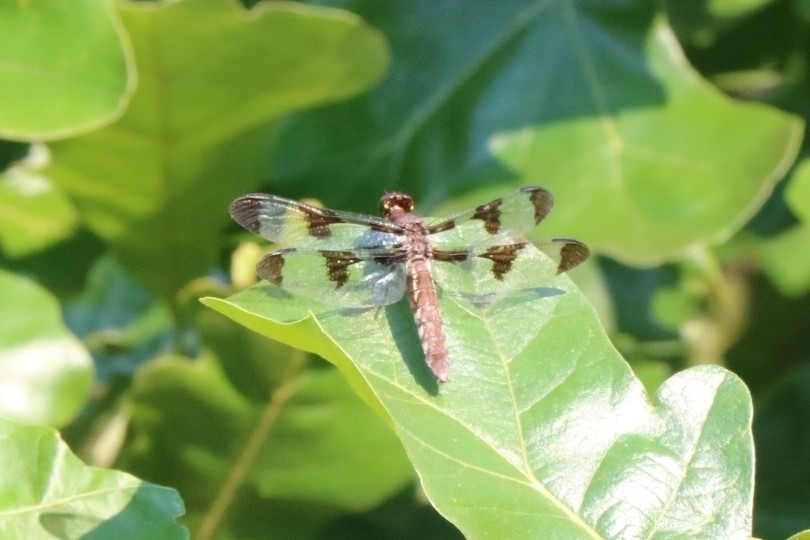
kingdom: Animalia
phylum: Arthropoda
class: Insecta
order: Odonata
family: Libellulidae
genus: Plathemis
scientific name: Plathemis lydia
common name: Common whitetail
